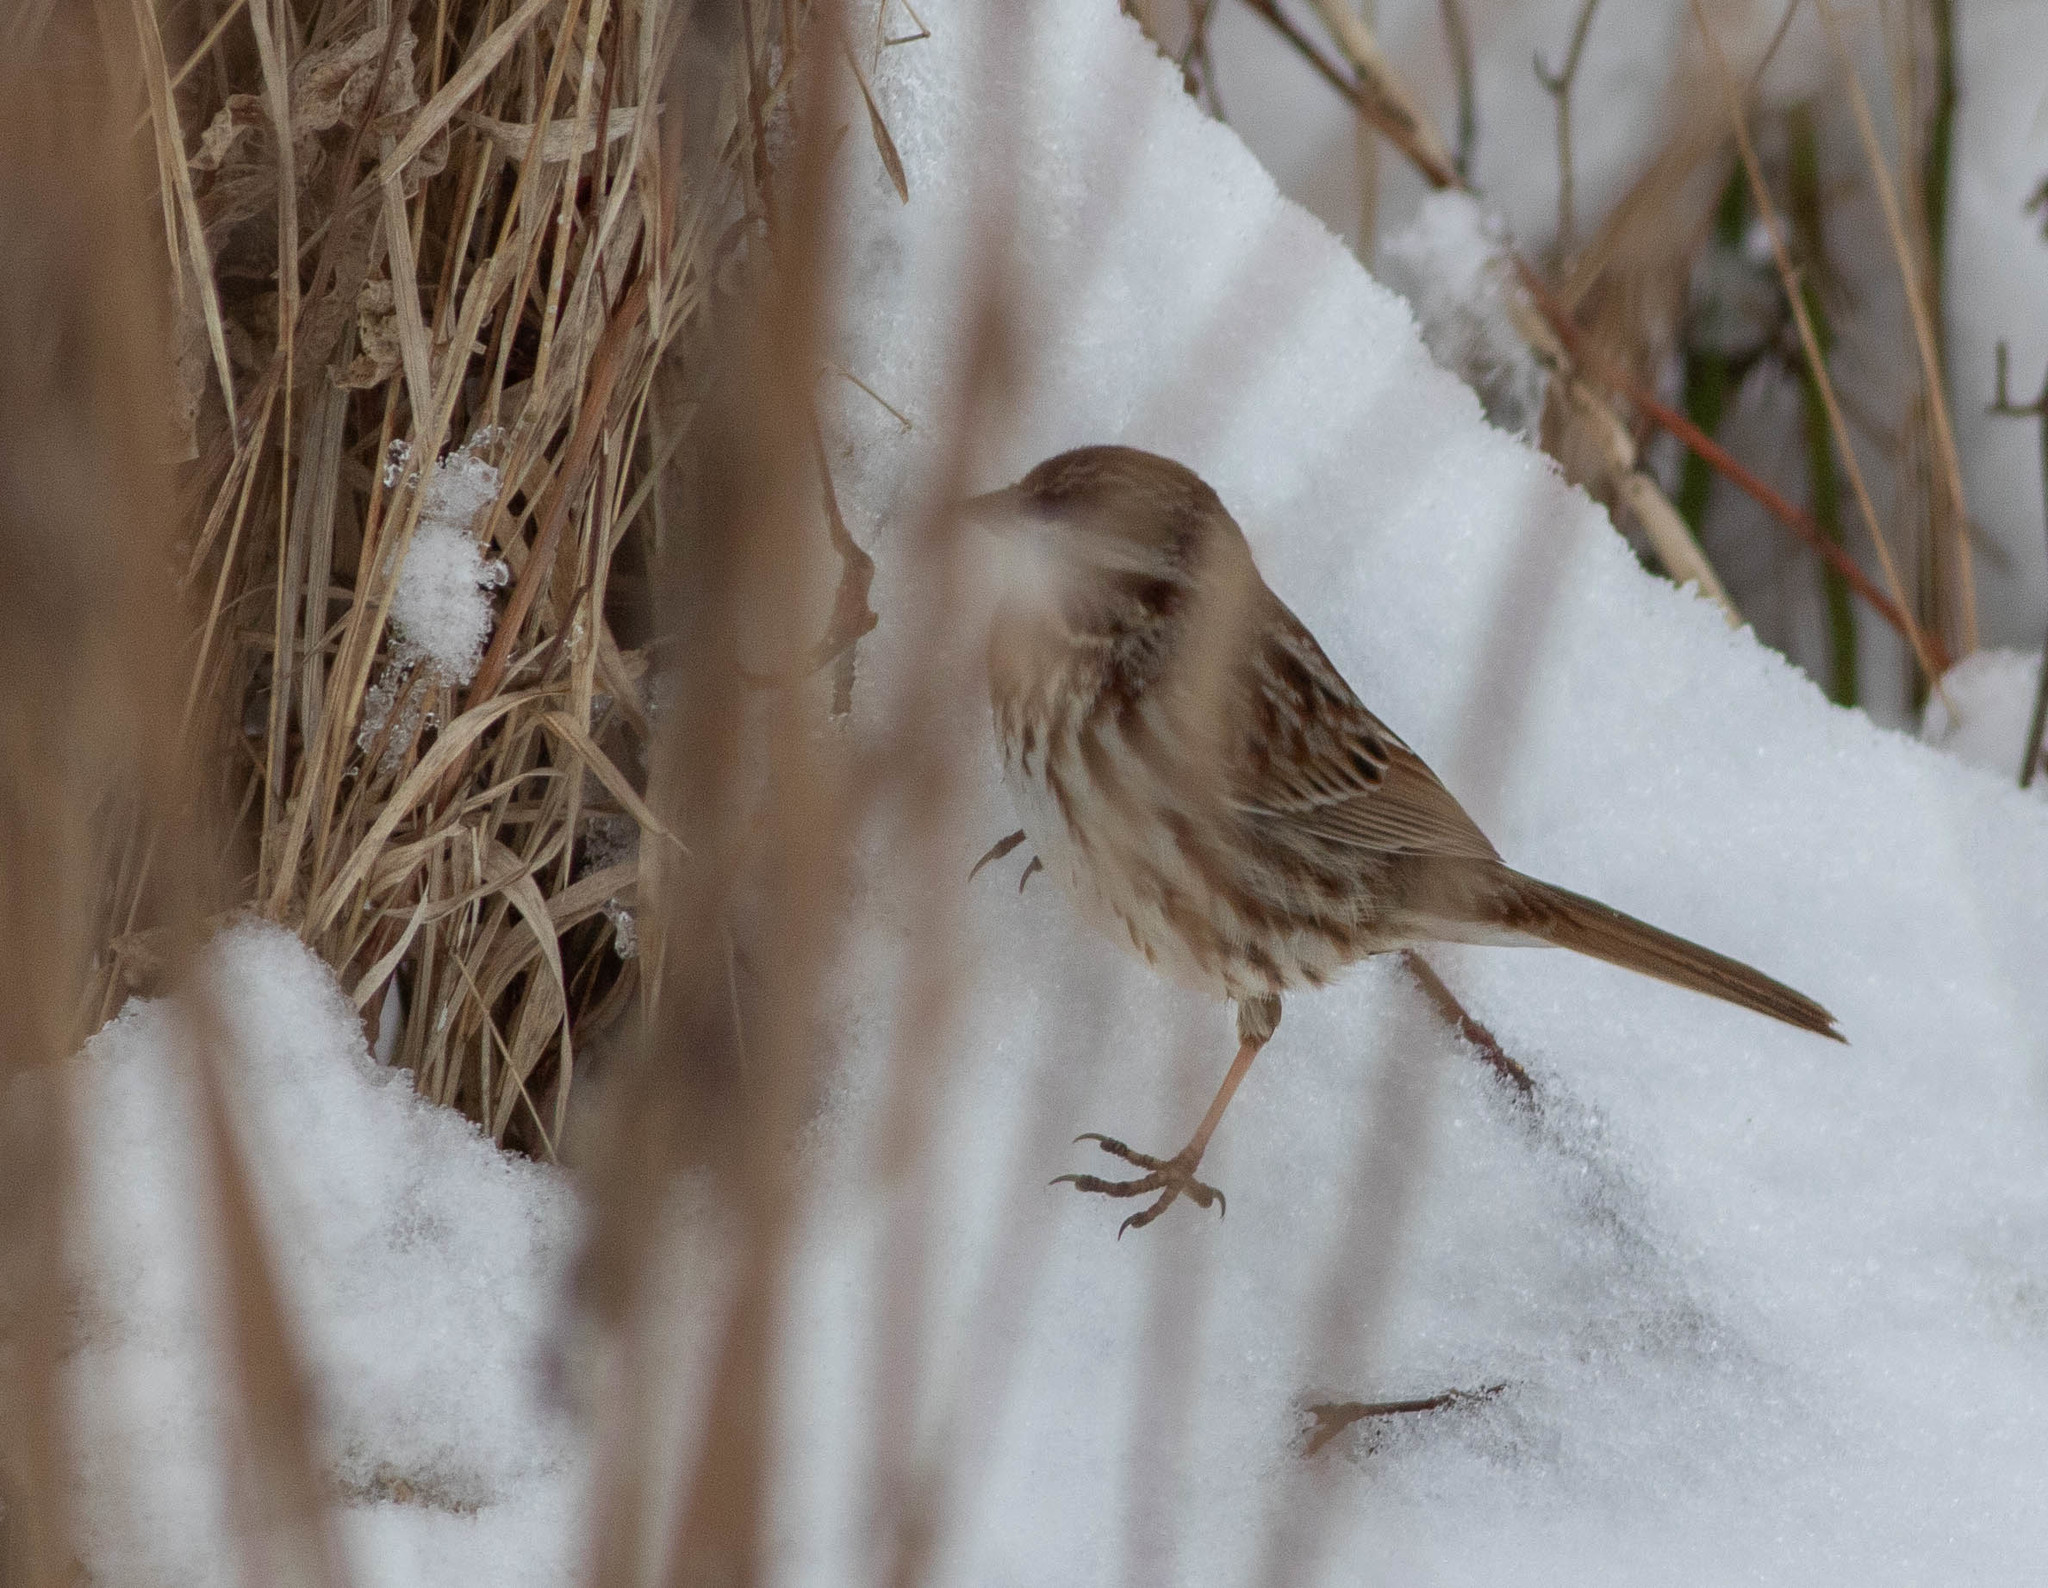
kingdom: Animalia
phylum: Chordata
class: Aves
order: Passeriformes
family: Passerellidae
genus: Melospiza
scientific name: Melospiza melodia
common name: Song sparrow
